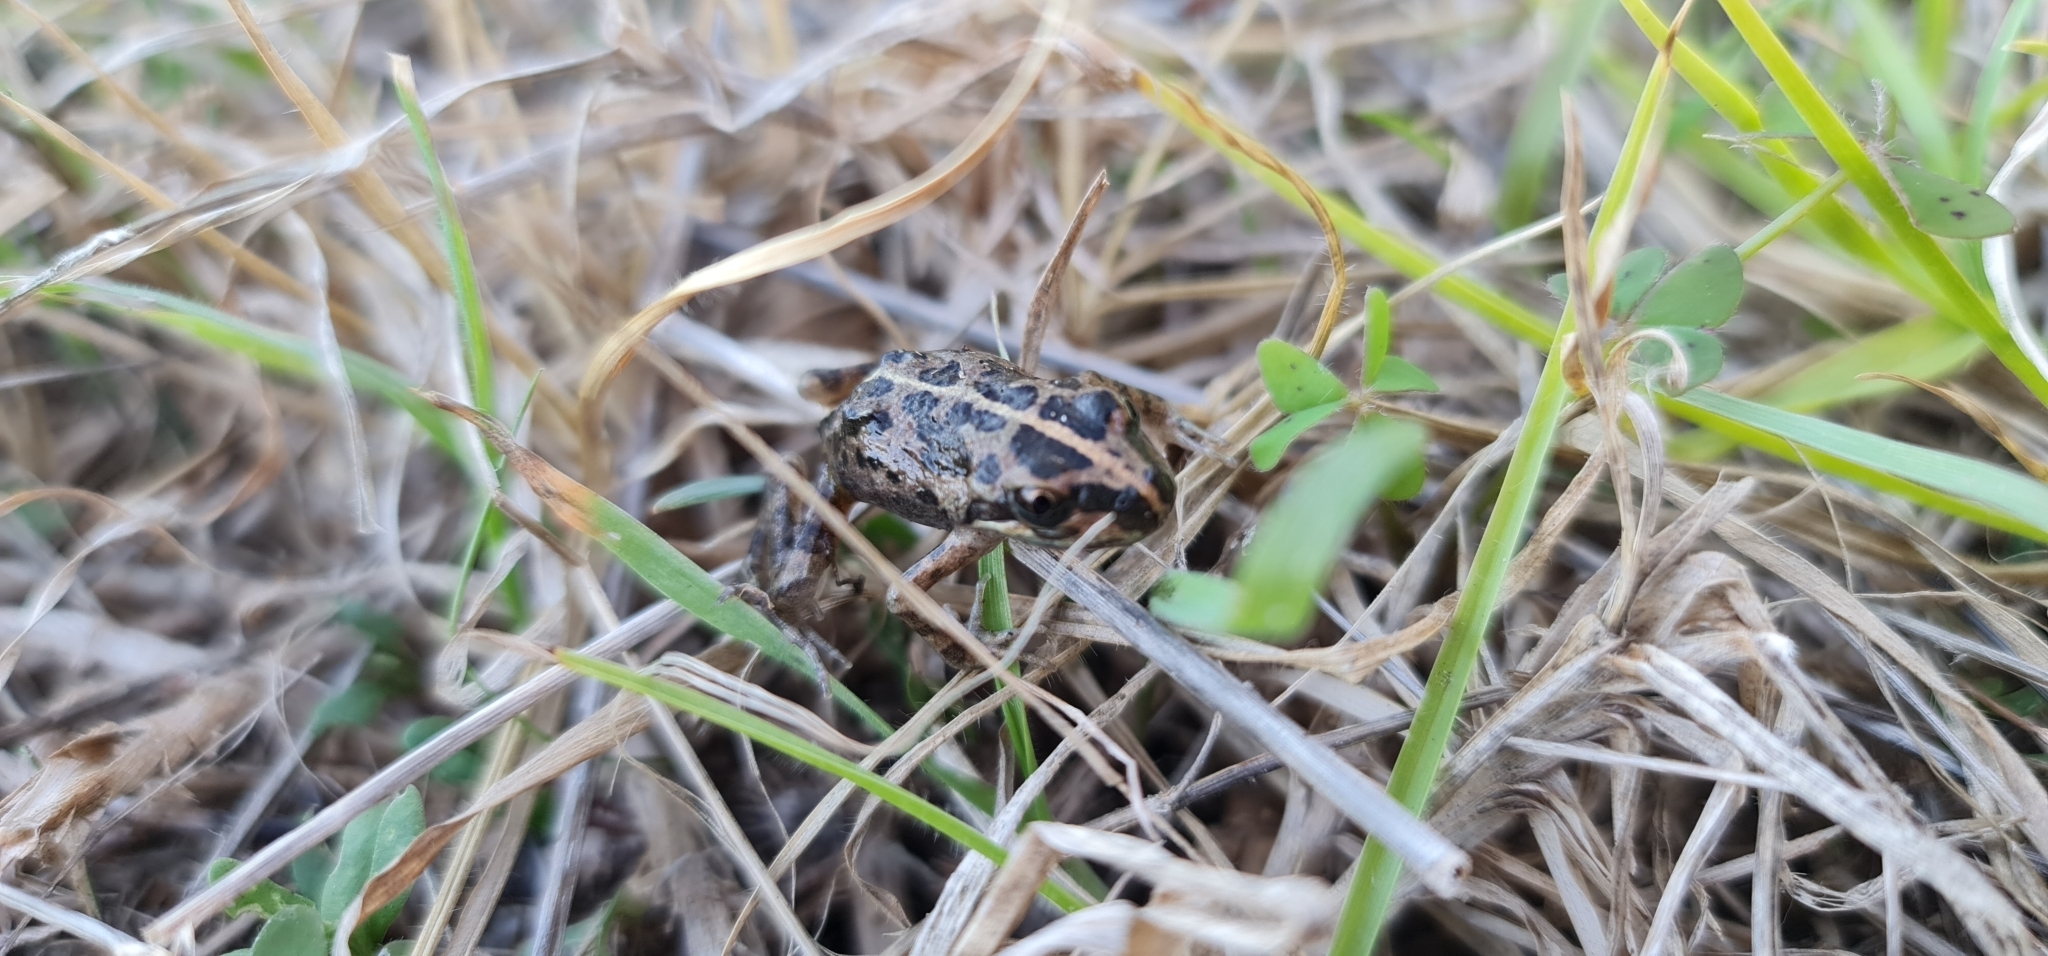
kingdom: Animalia
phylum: Chordata
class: Amphibia
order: Anura
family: Limnodynastidae
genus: Limnodynastes
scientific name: Limnodynastes tasmaniensis
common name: Spotted marsh frog
